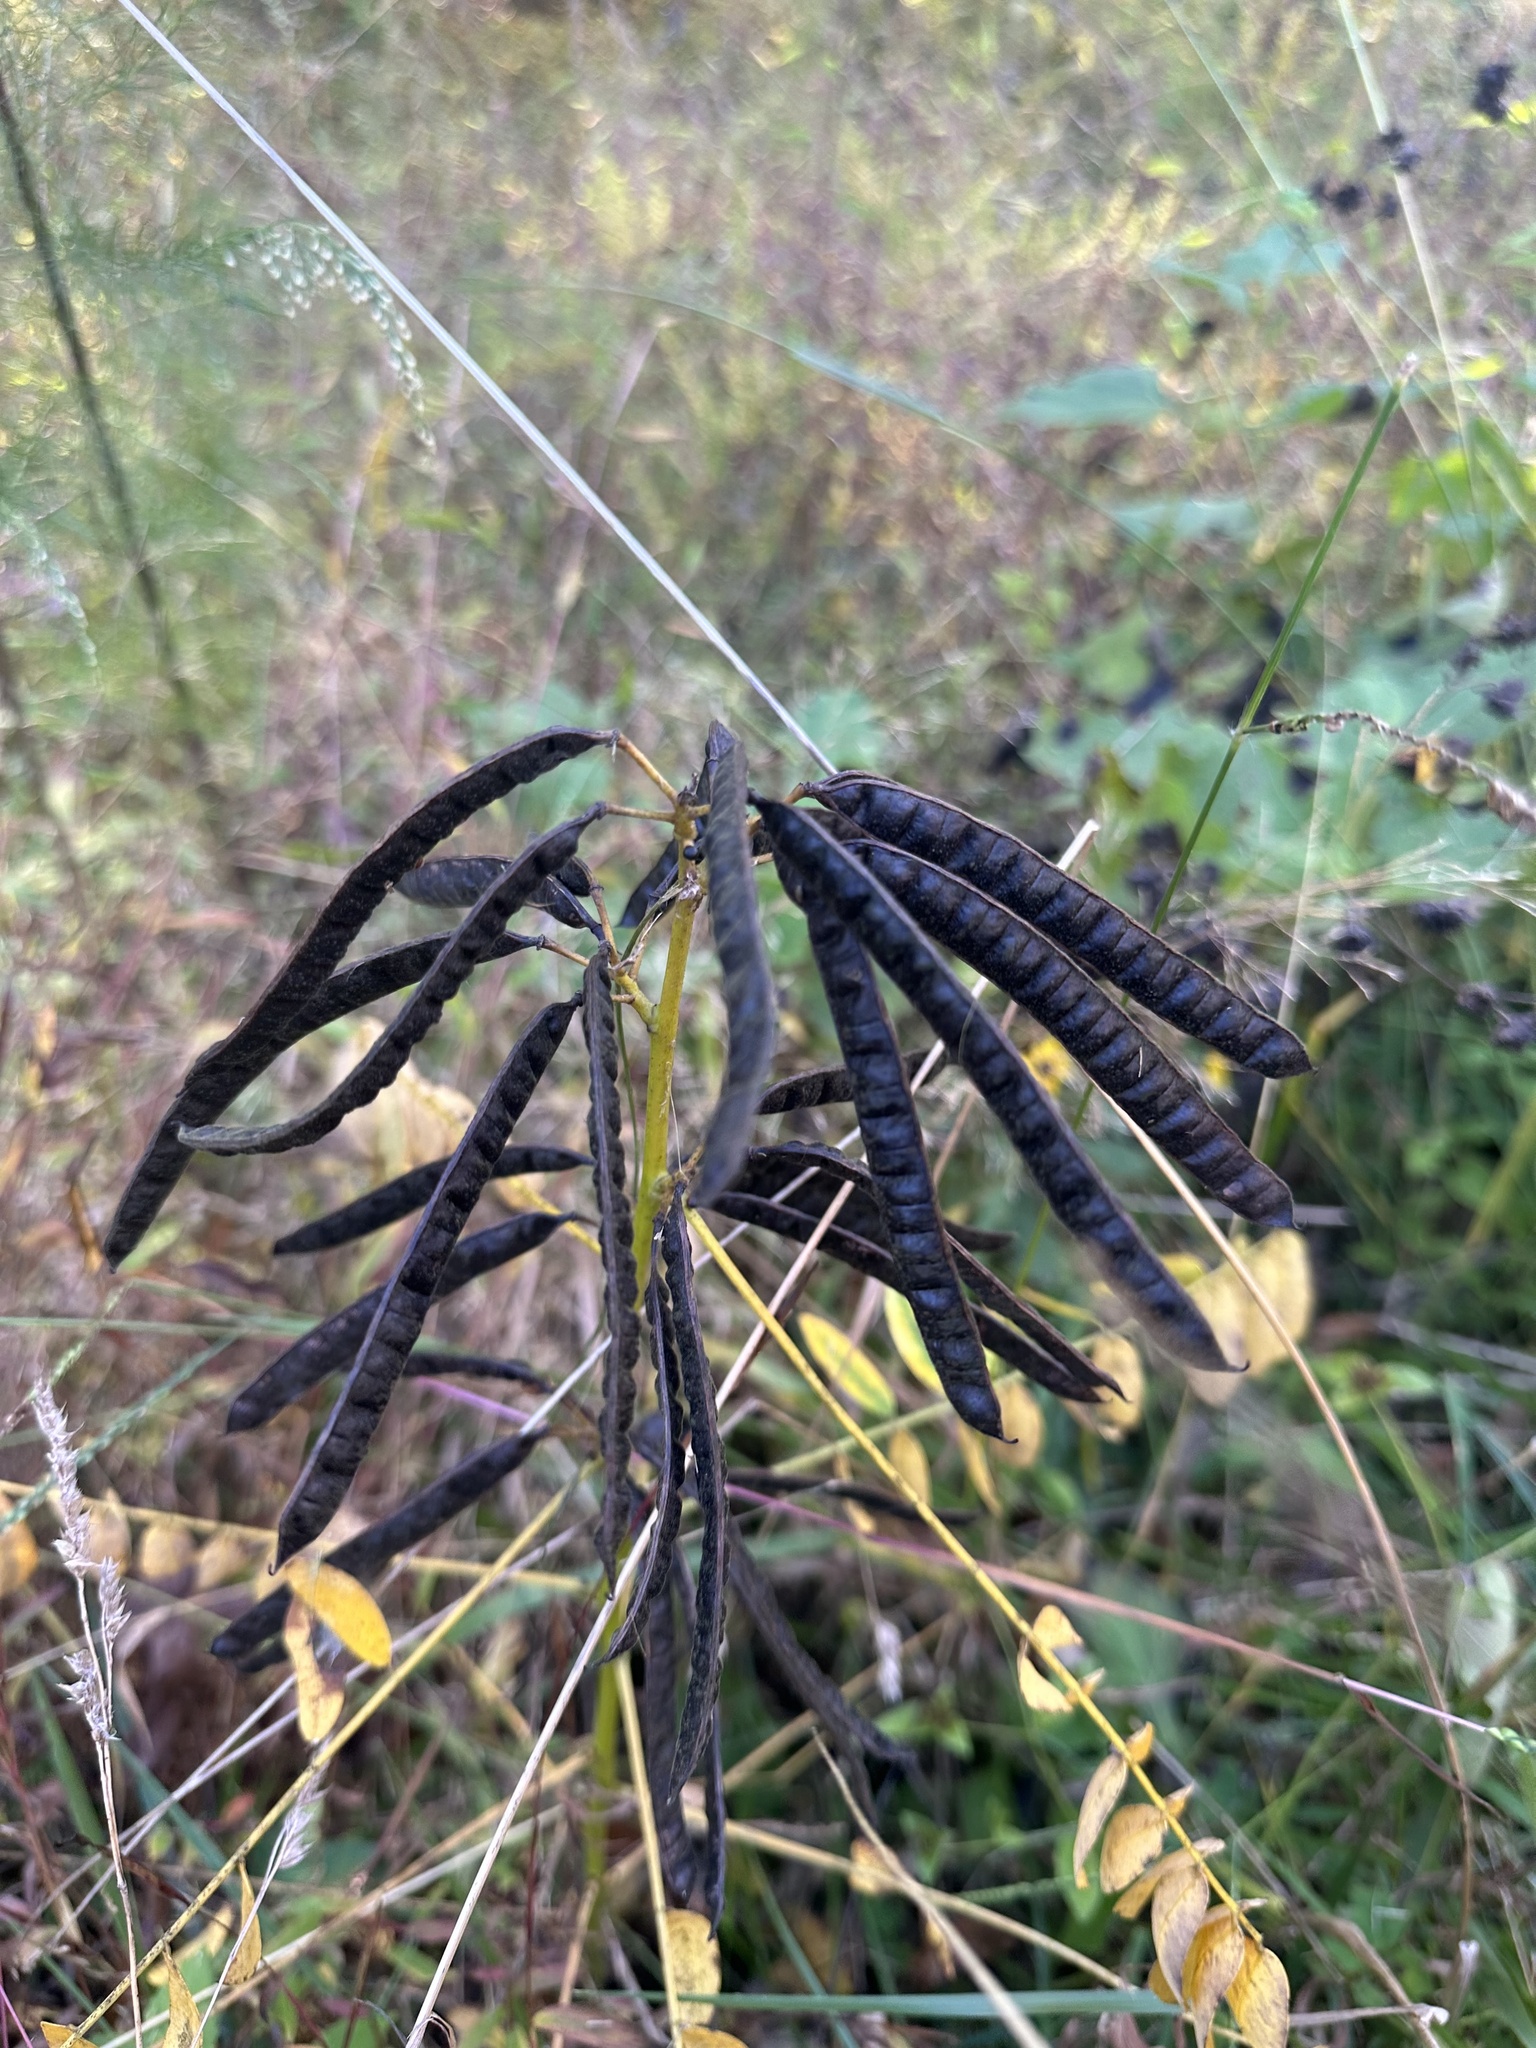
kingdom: Plantae
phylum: Tracheophyta
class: Magnoliopsida
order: Fabales
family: Fabaceae
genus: Senna
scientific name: Senna marilandica
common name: American senna
